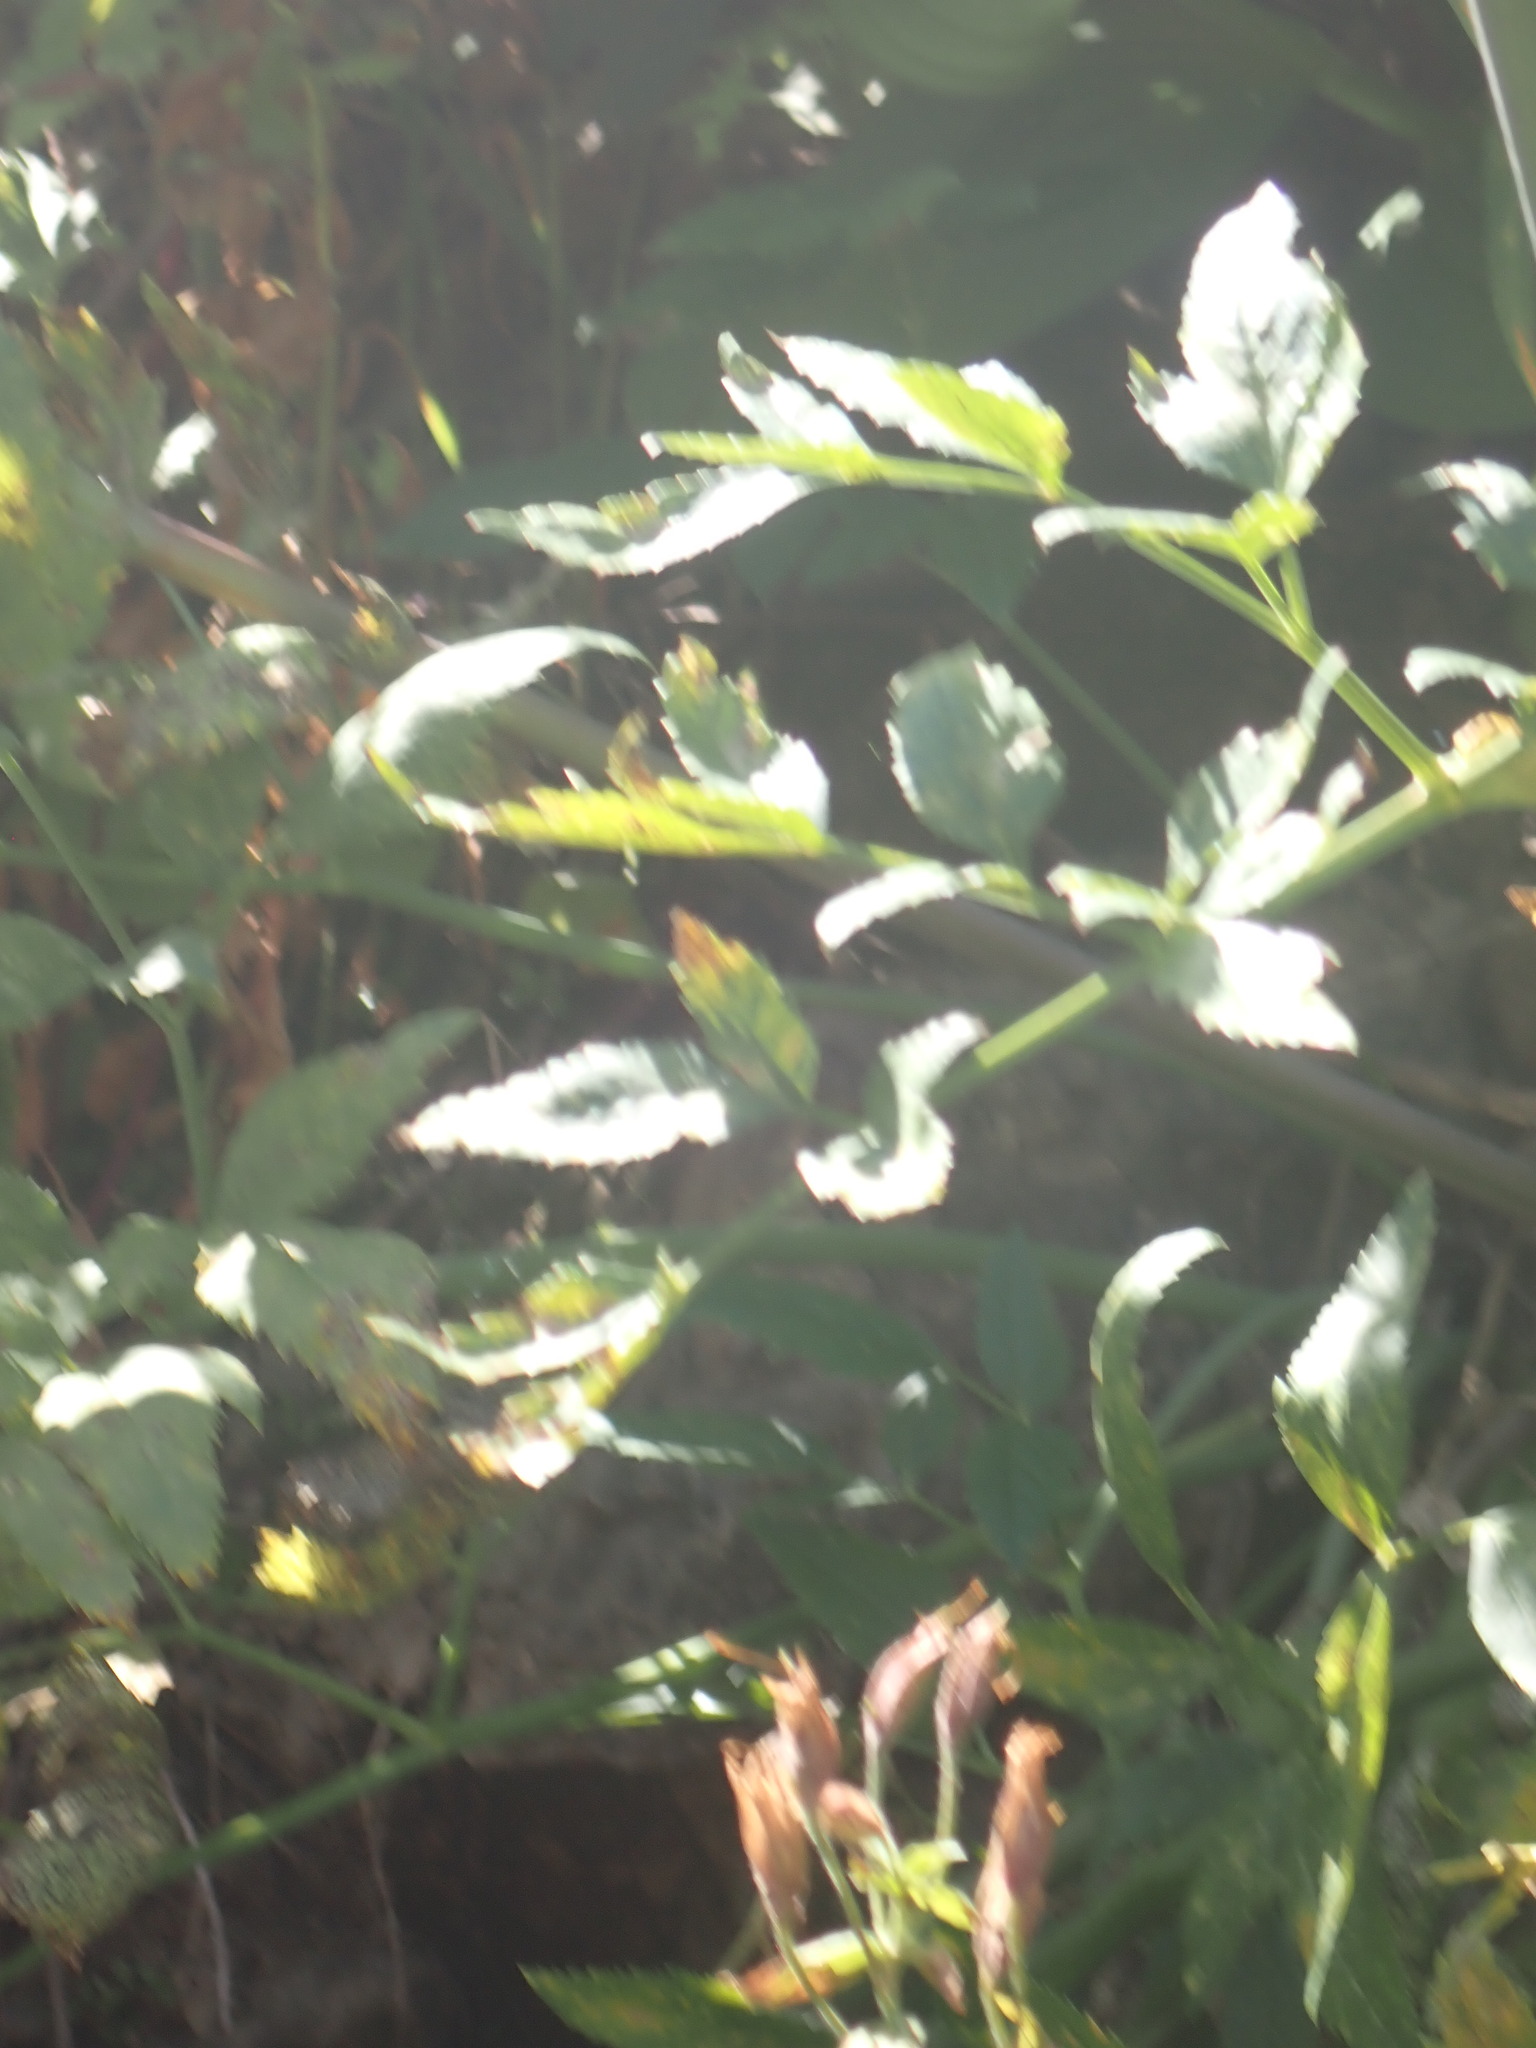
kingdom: Plantae
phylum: Tracheophyta
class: Magnoliopsida
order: Apiales
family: Apiaceae
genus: Angelica
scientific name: Angelica arguta
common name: Lyall's angelica
